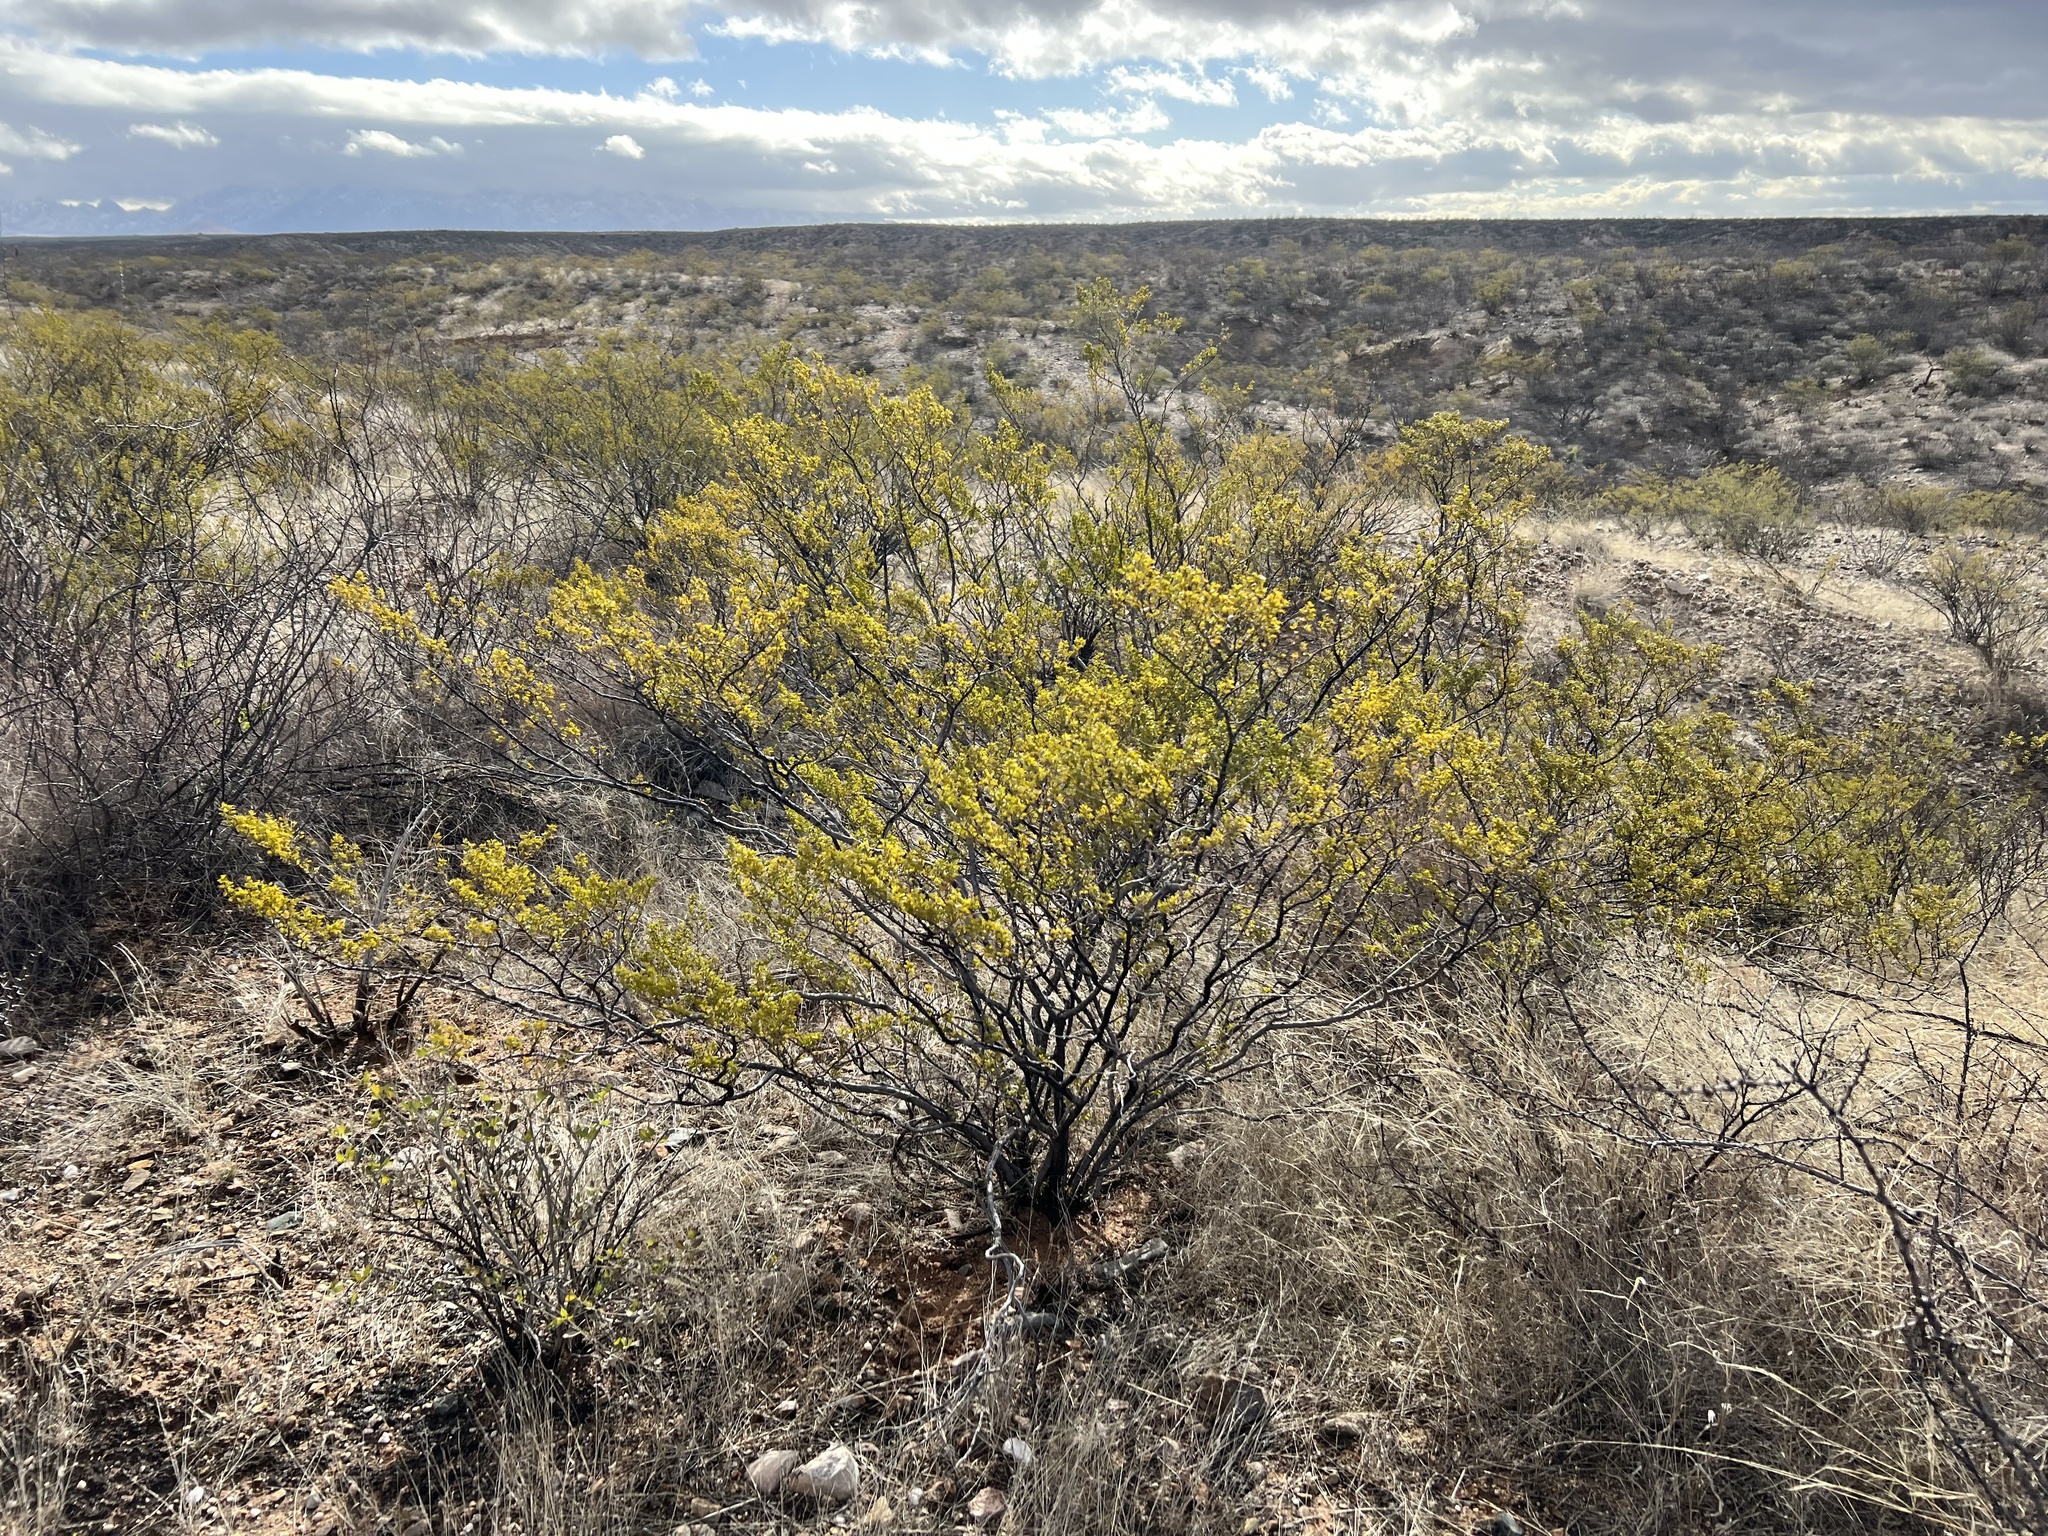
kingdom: Plantae
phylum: Tracheophyta
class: Magnoliopsida
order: Zygophyllales
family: Zygophyllaceae
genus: Larrea
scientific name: Larrea tridentata
